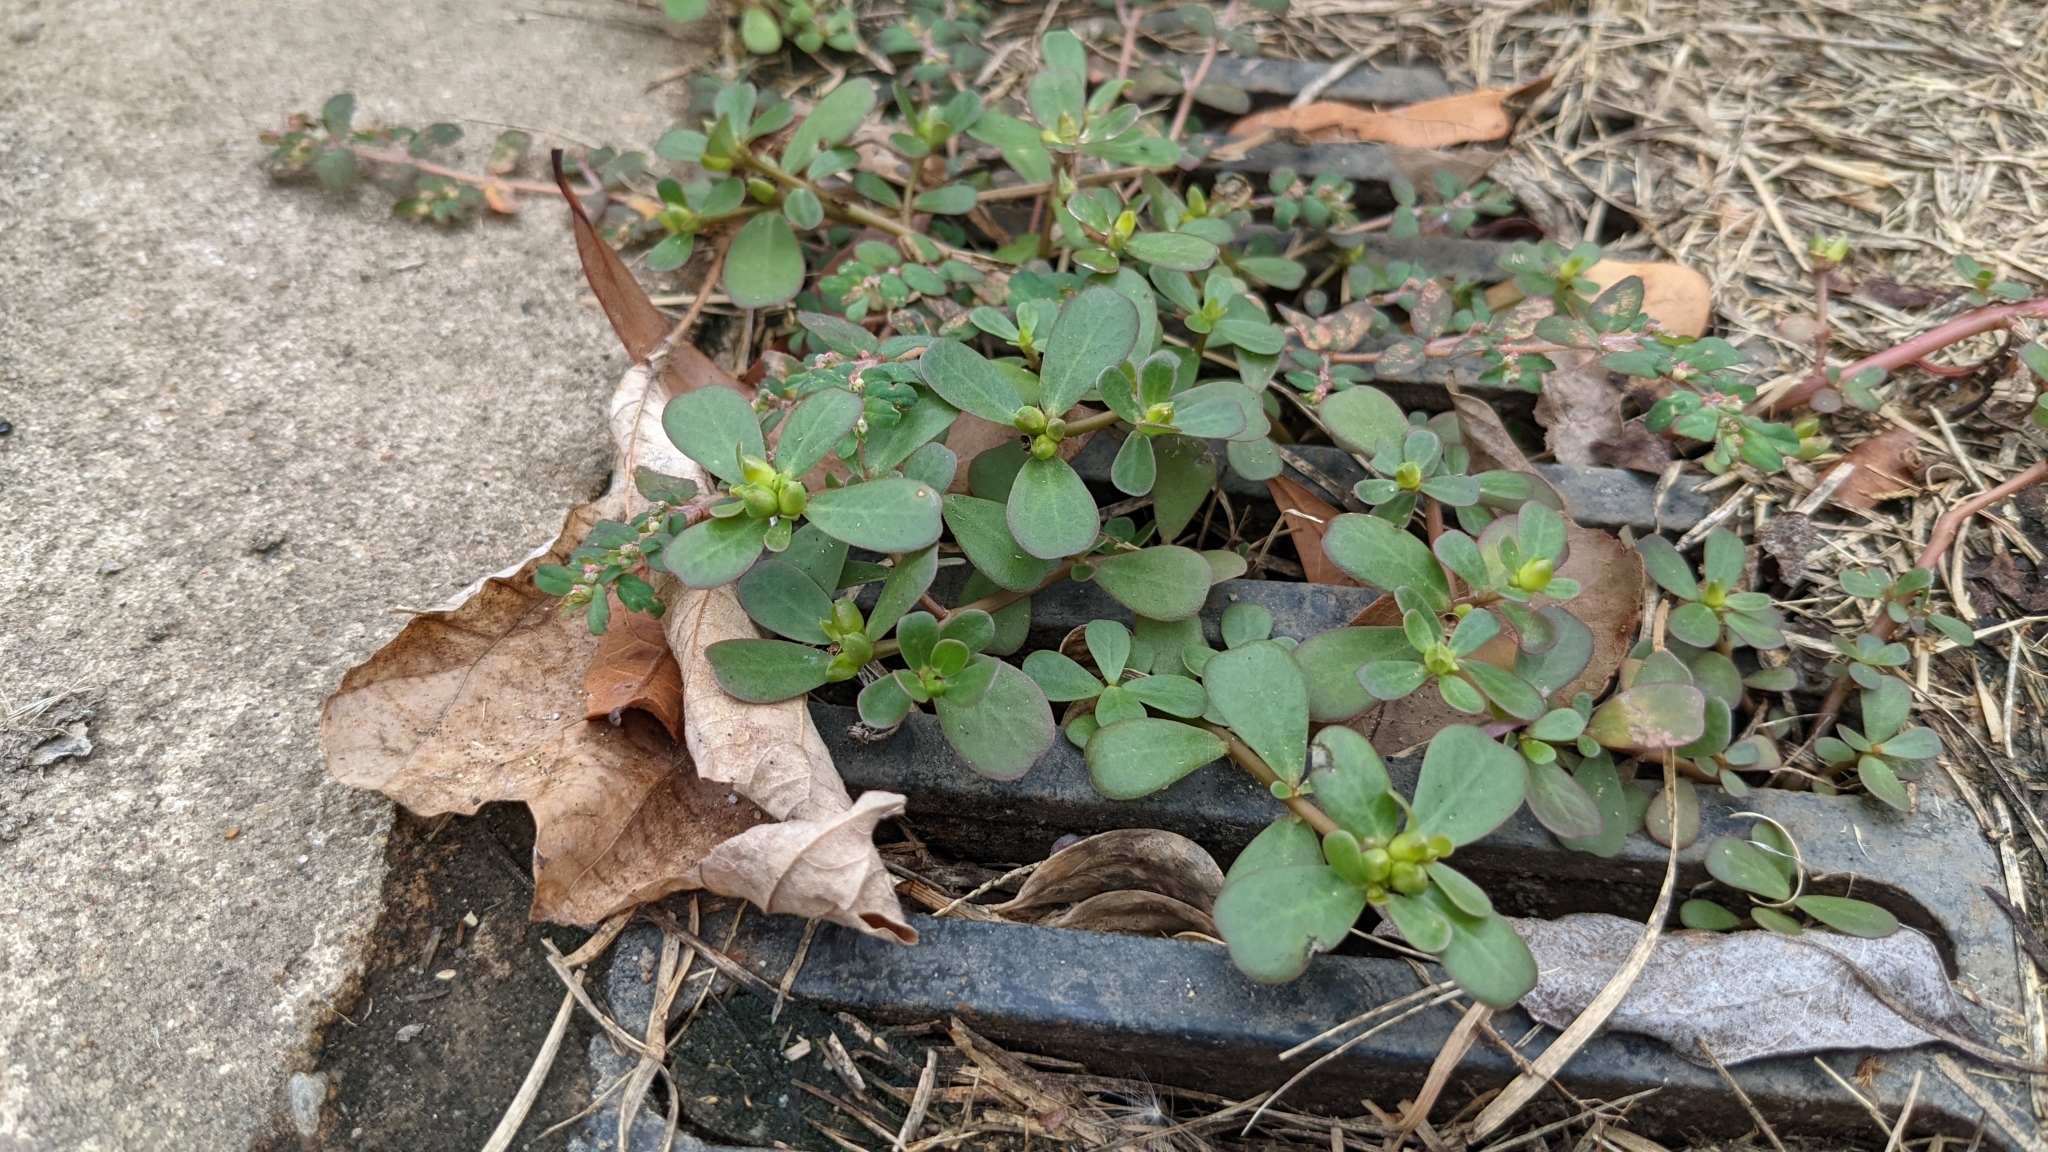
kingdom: Plantae
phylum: Tracheophyta
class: Magnoliopsida
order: Caryophyllales
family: Portulacaceae
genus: Portulaca
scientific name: Portulaca oleracea
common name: Common purslane
